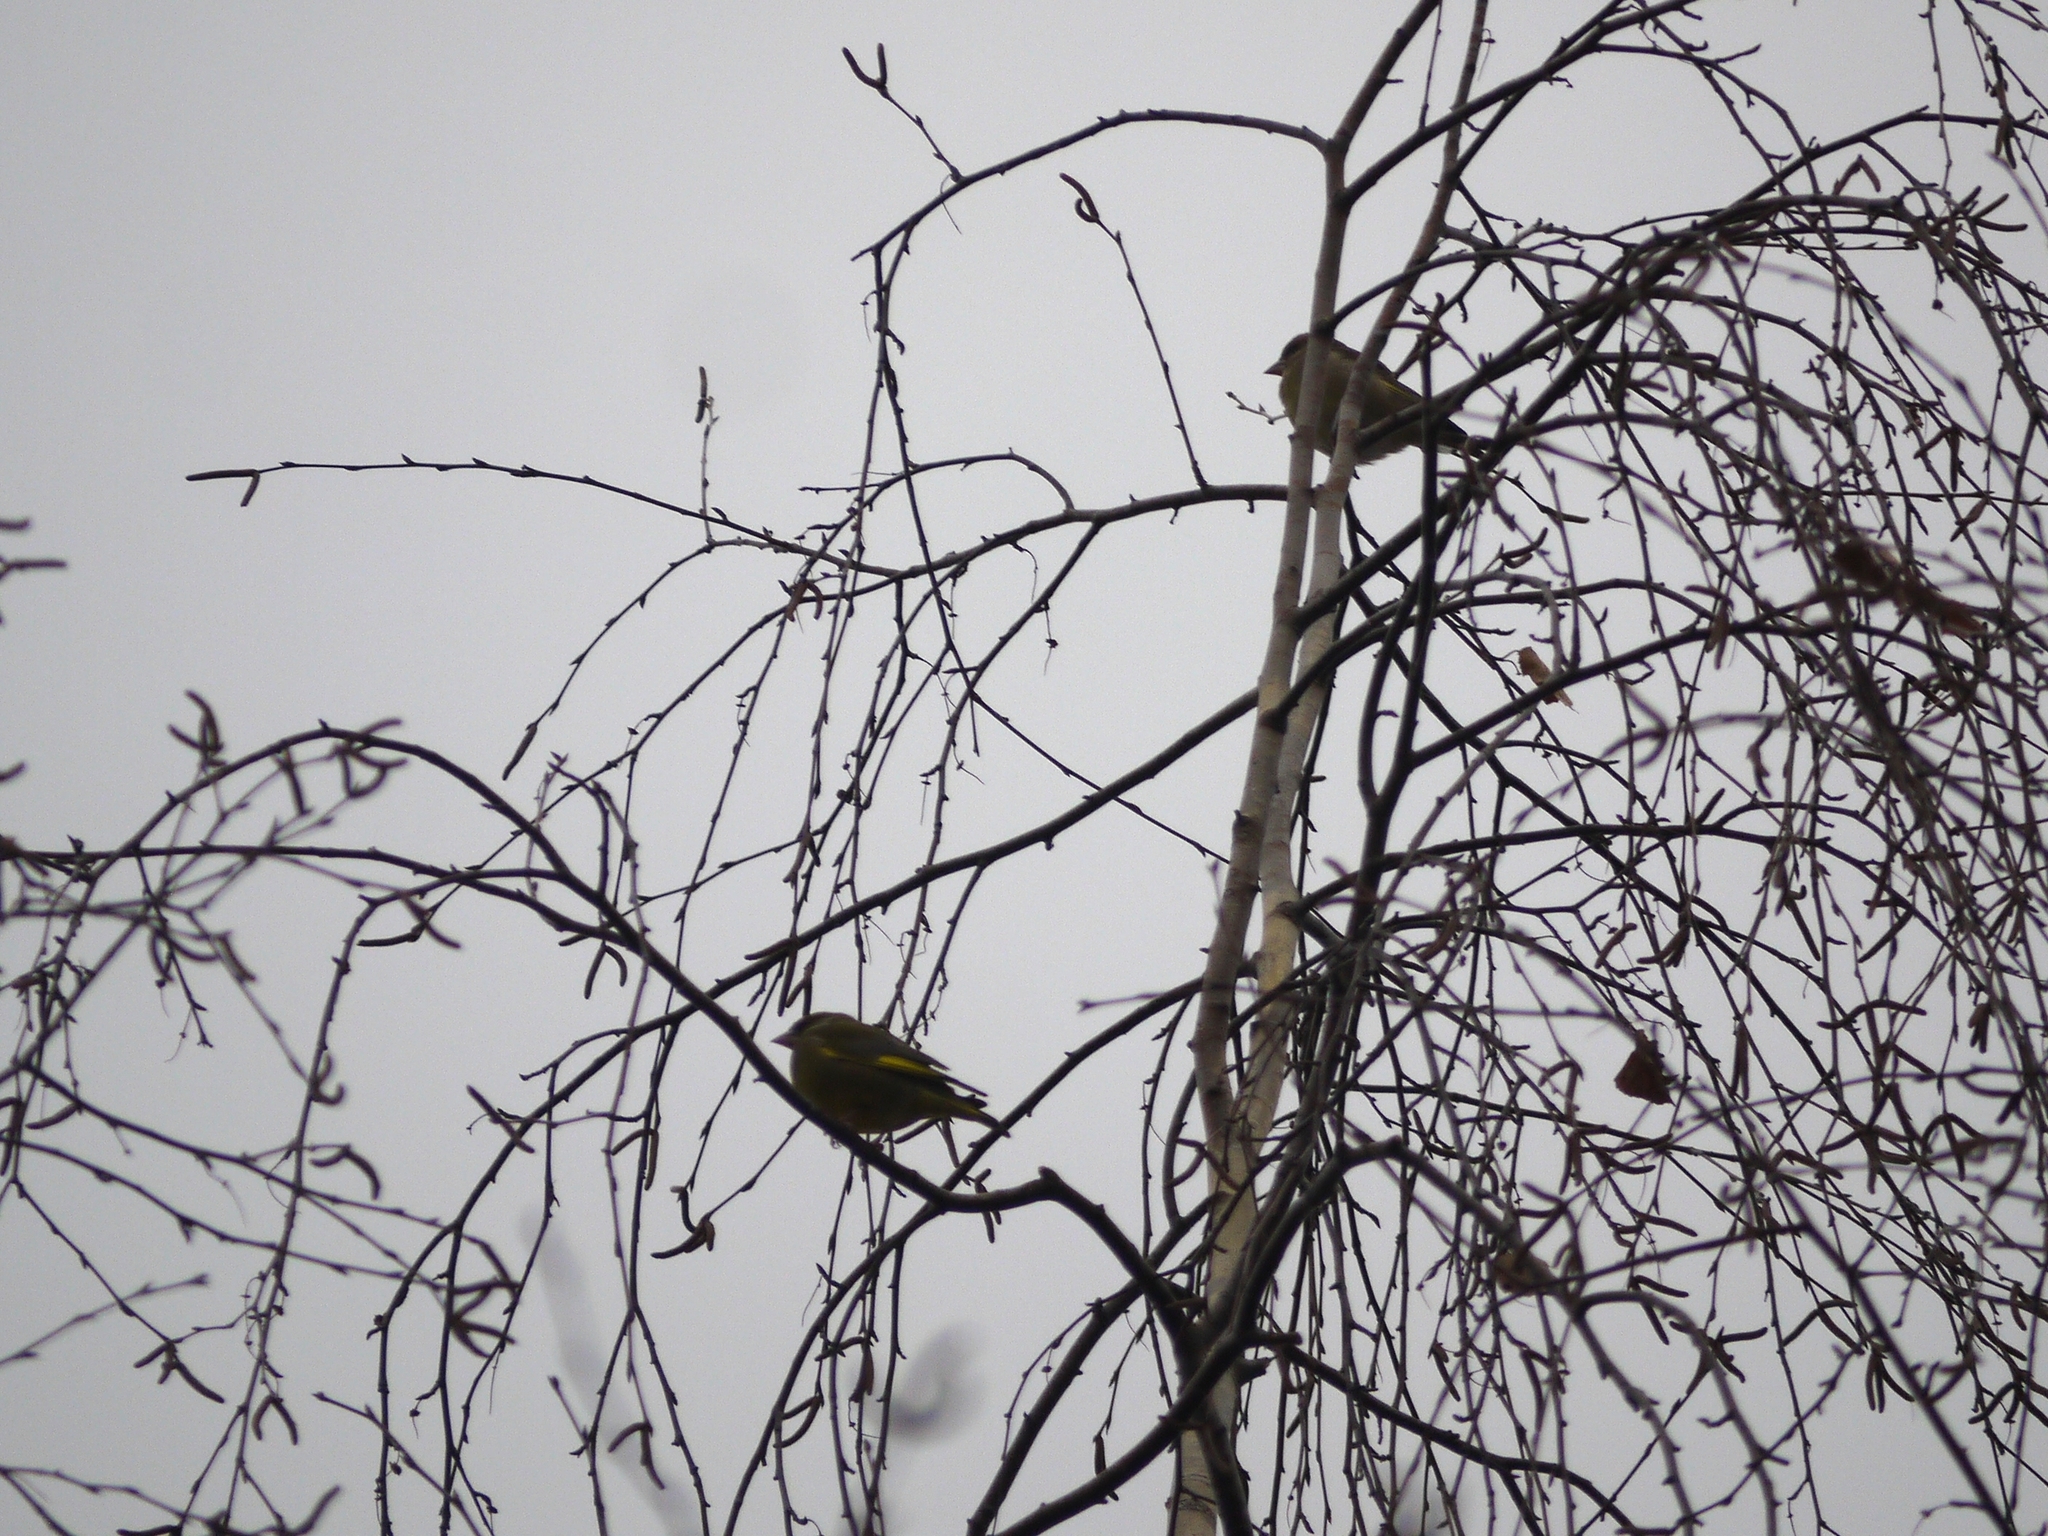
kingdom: Plantae
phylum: Tracheophyta
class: Liliopsida
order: Poales
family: Poaceae
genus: Chloris
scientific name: Chloris chloris
